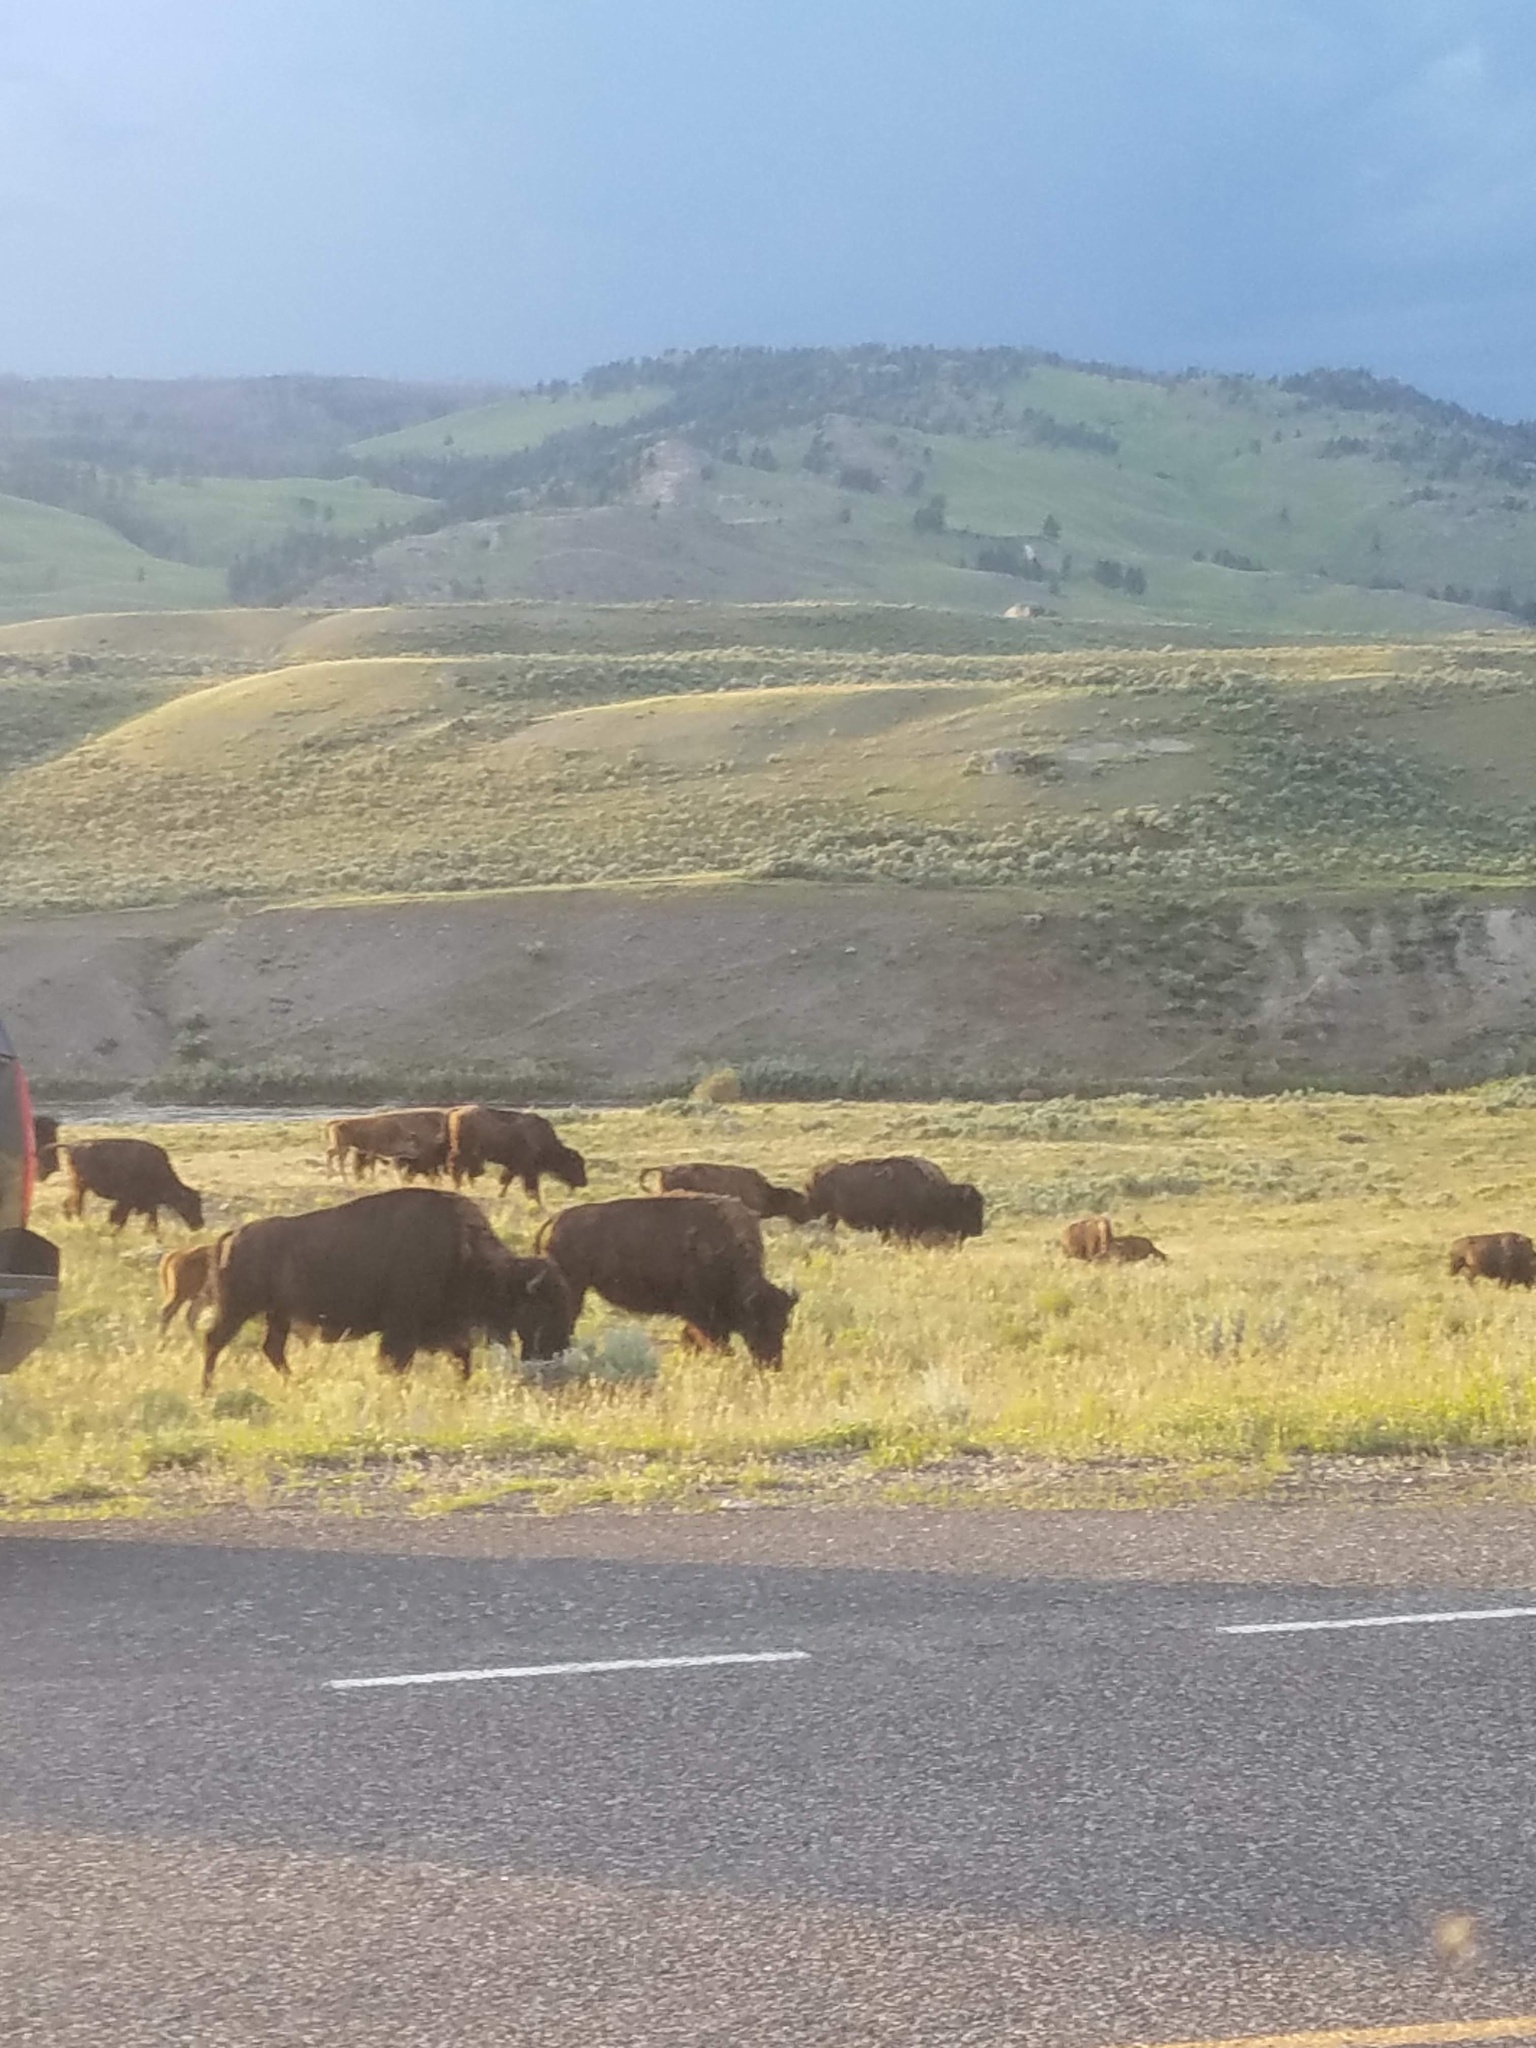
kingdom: Animalia
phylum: Chordata
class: Mammalia
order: Artiodactyla
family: Bovidae
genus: Bison
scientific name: Bison bison
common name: American bison
